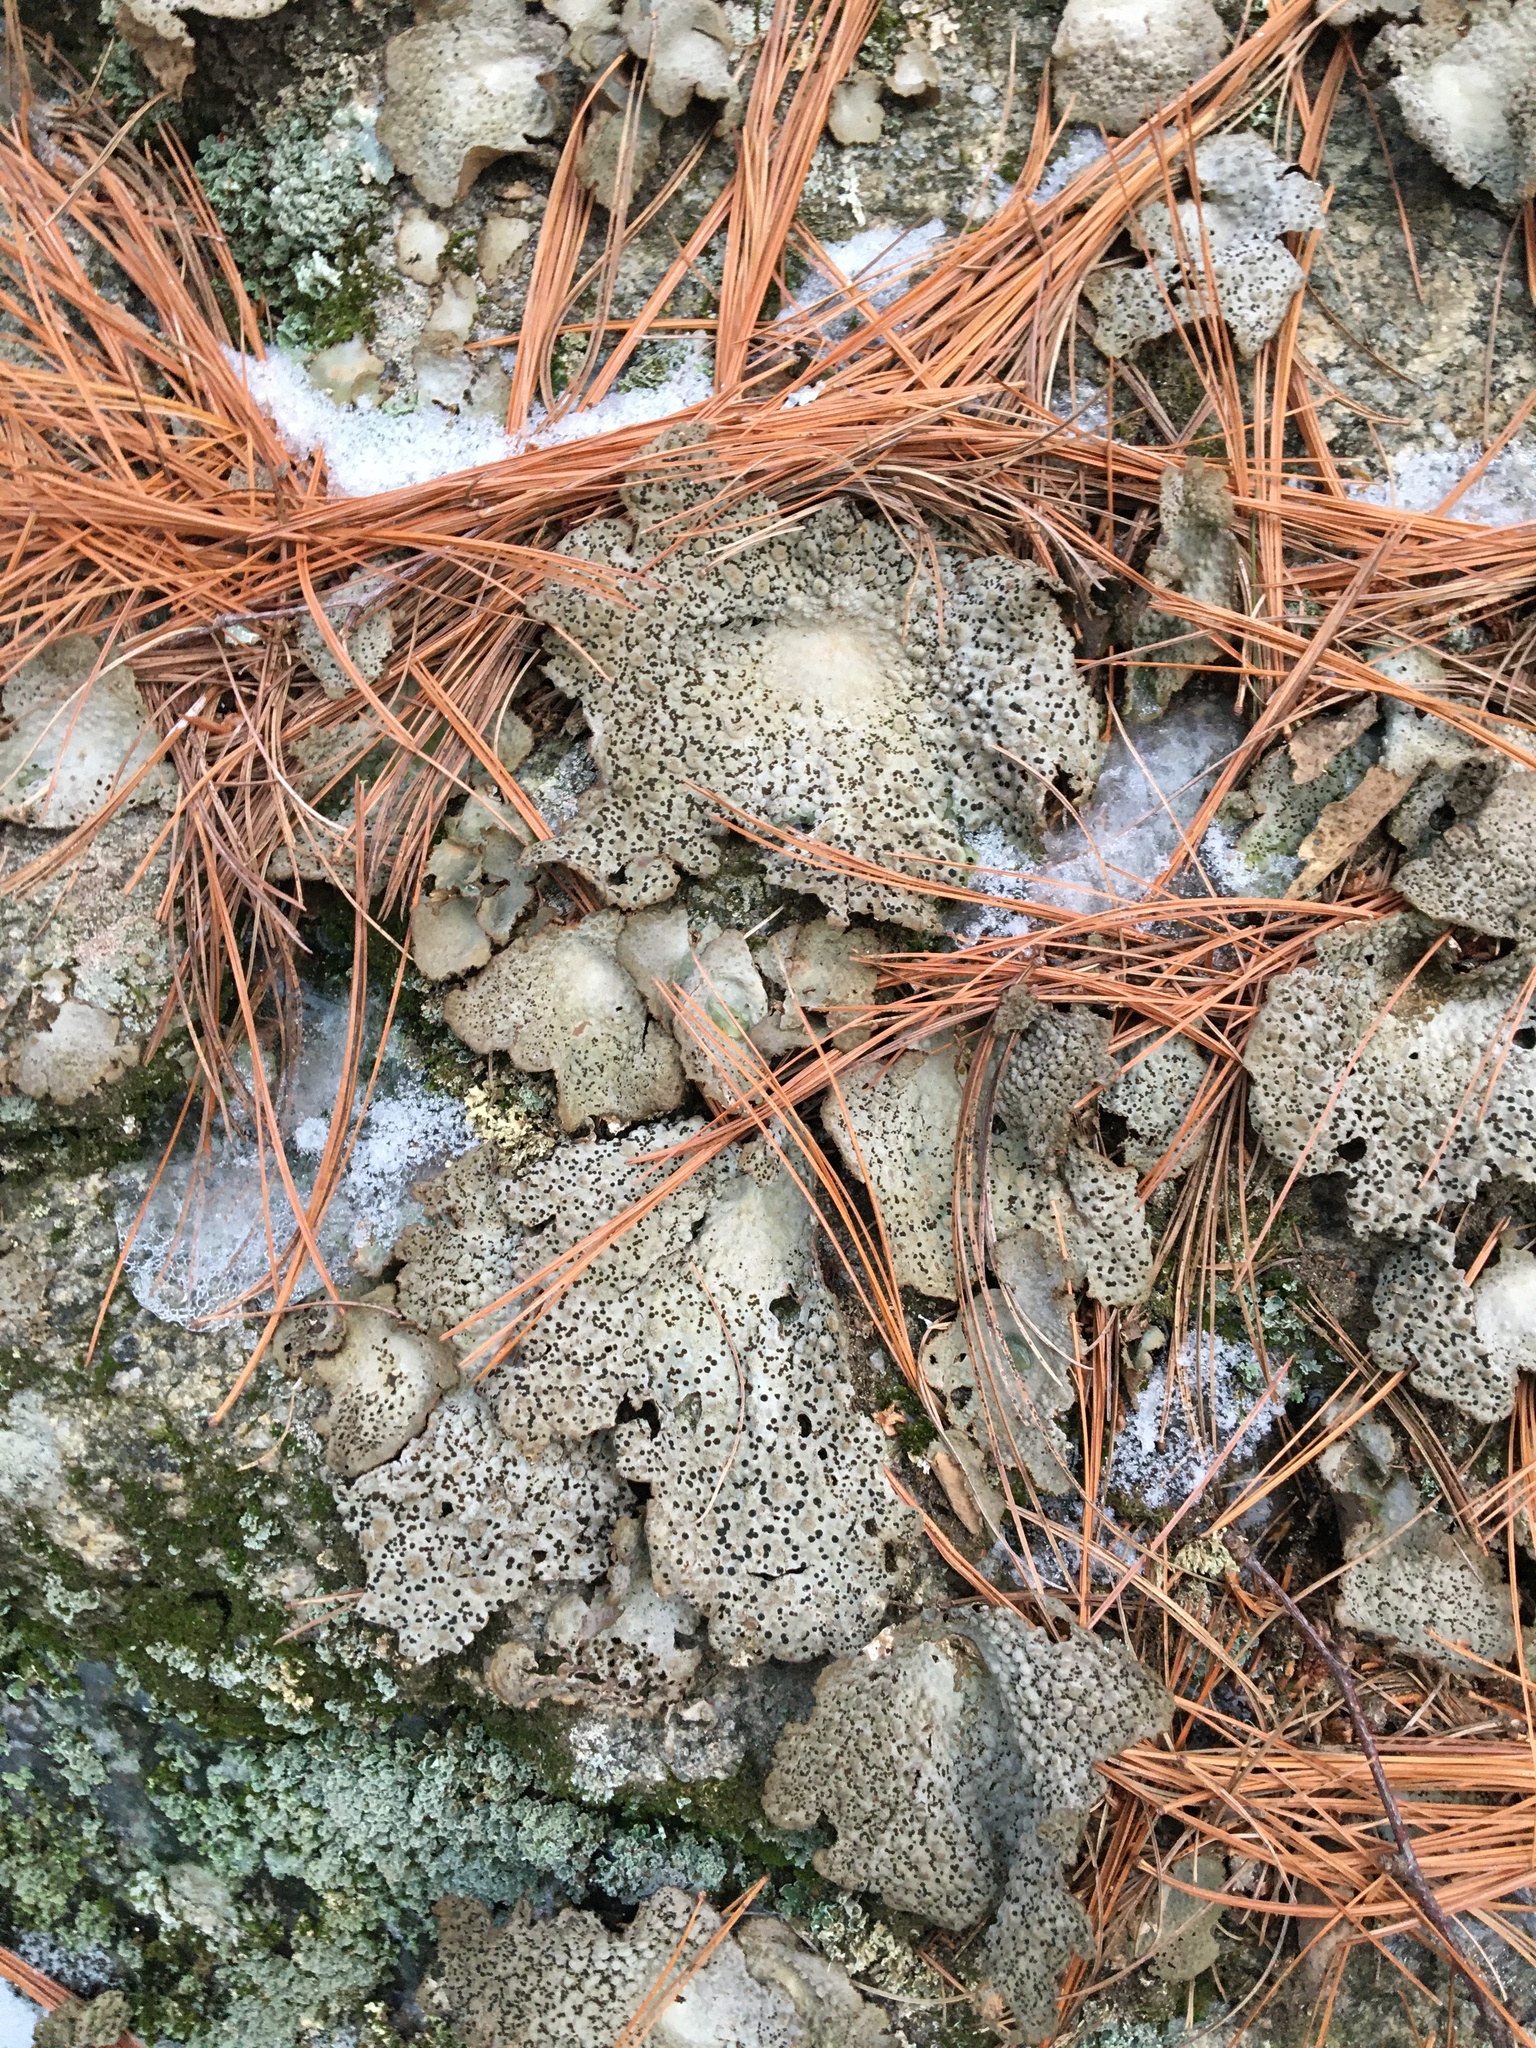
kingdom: Fungi
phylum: Ascomycota
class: Lecanoromycetes
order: Umbilicariales
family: Umbilicariaceae
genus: Lasallia
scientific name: Lasallia papulosa
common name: Common toadskin lichen
